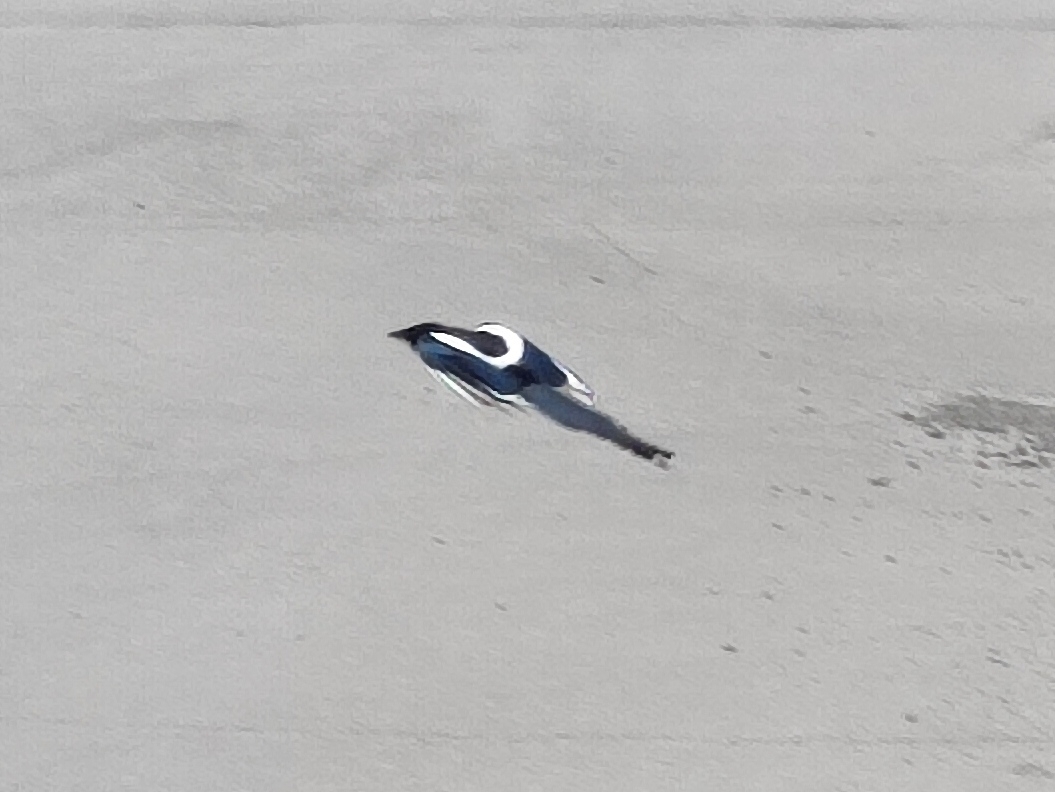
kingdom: Animalia
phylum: Chordata
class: Aves
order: Passeriformes
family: Corvidae
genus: Pica
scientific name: Pica pica
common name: Eurasian magpie
